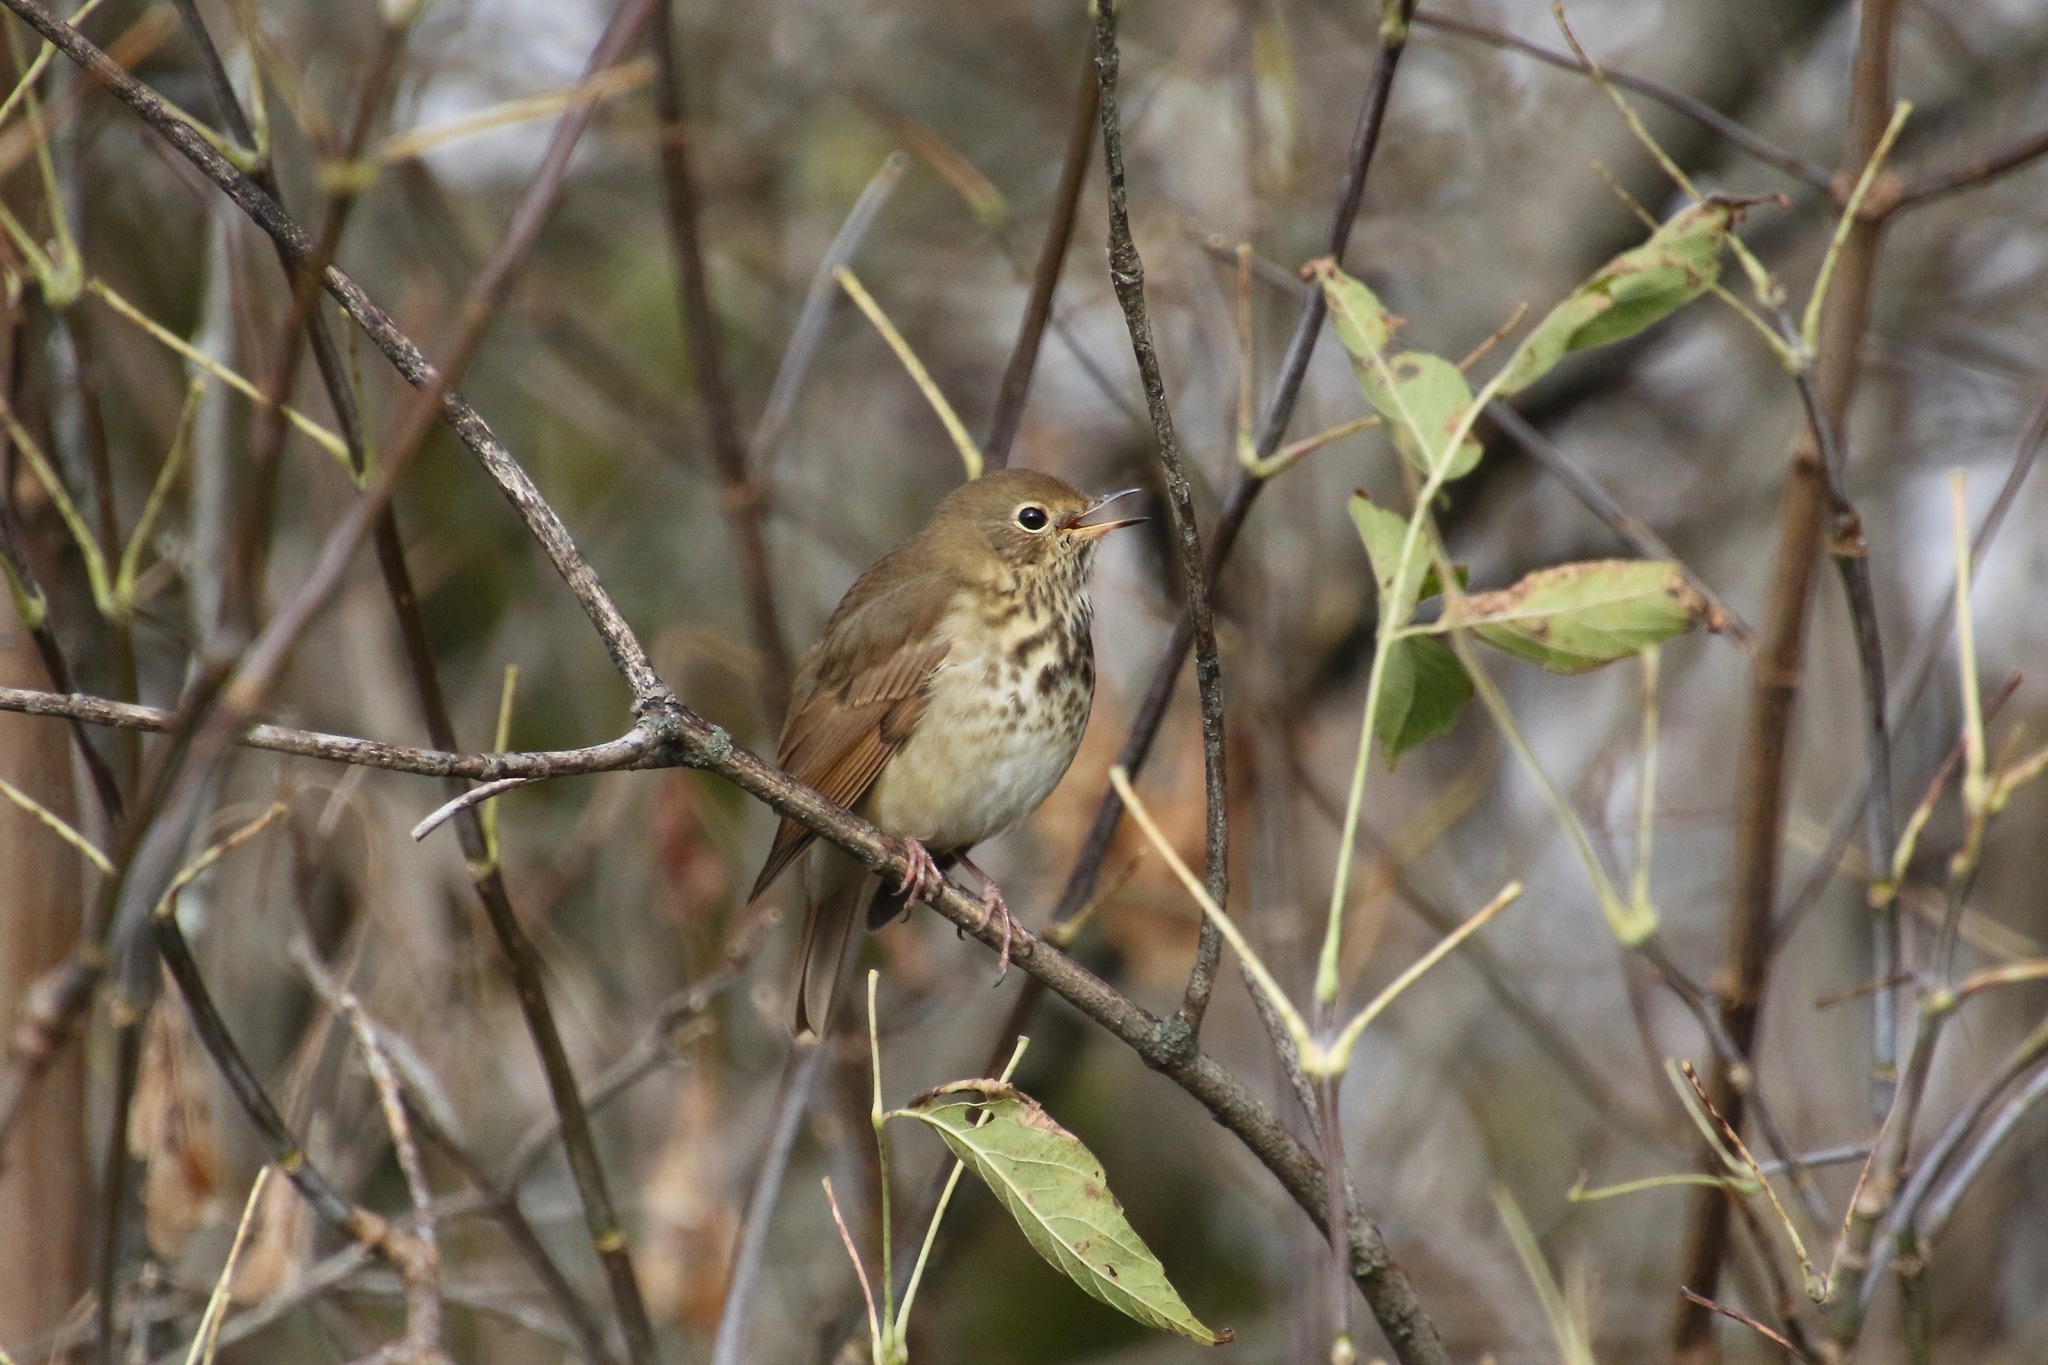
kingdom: Animalia
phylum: Chordata
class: Aves
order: Passeriformes
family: Turdidae
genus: Catharus
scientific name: Catharus guttatus
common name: Hermit thrush
